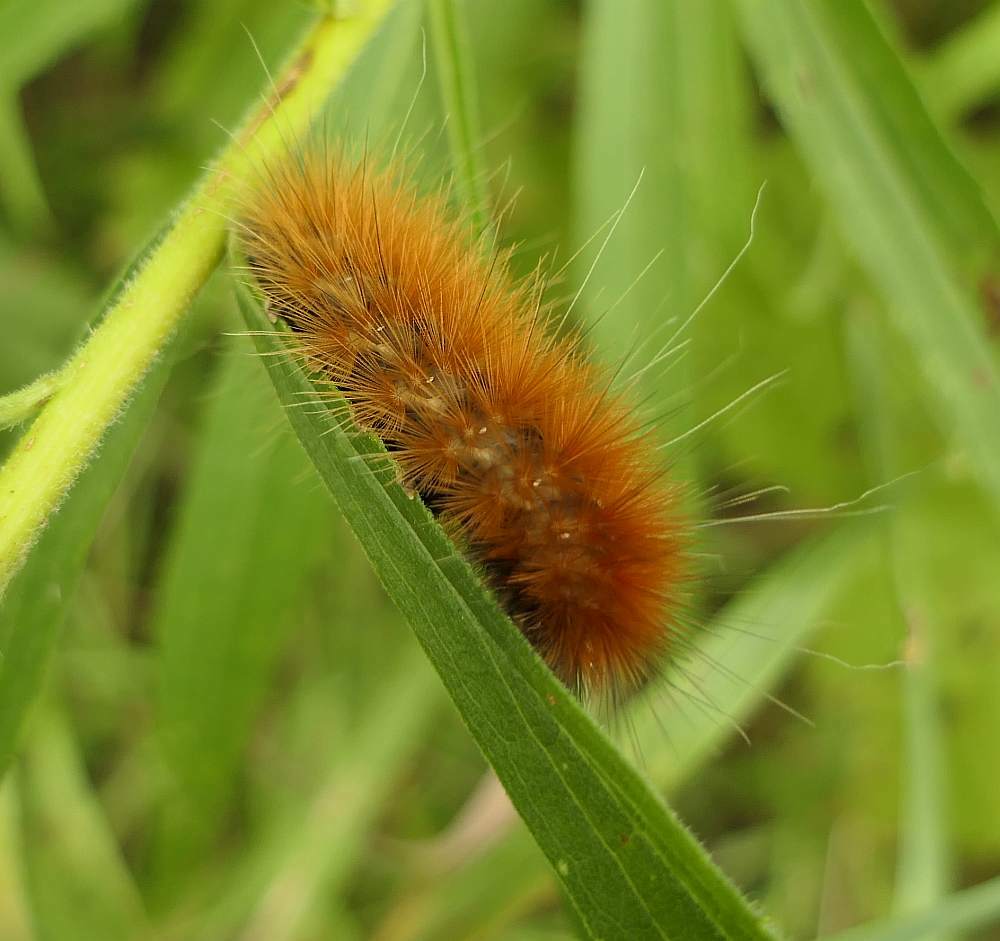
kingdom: Animalia
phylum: Arthropoda
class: Insecta
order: Lepidoptera
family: Erebidae
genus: Spilosoma
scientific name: Spilosoma virginica
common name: Virginia tiger moth
